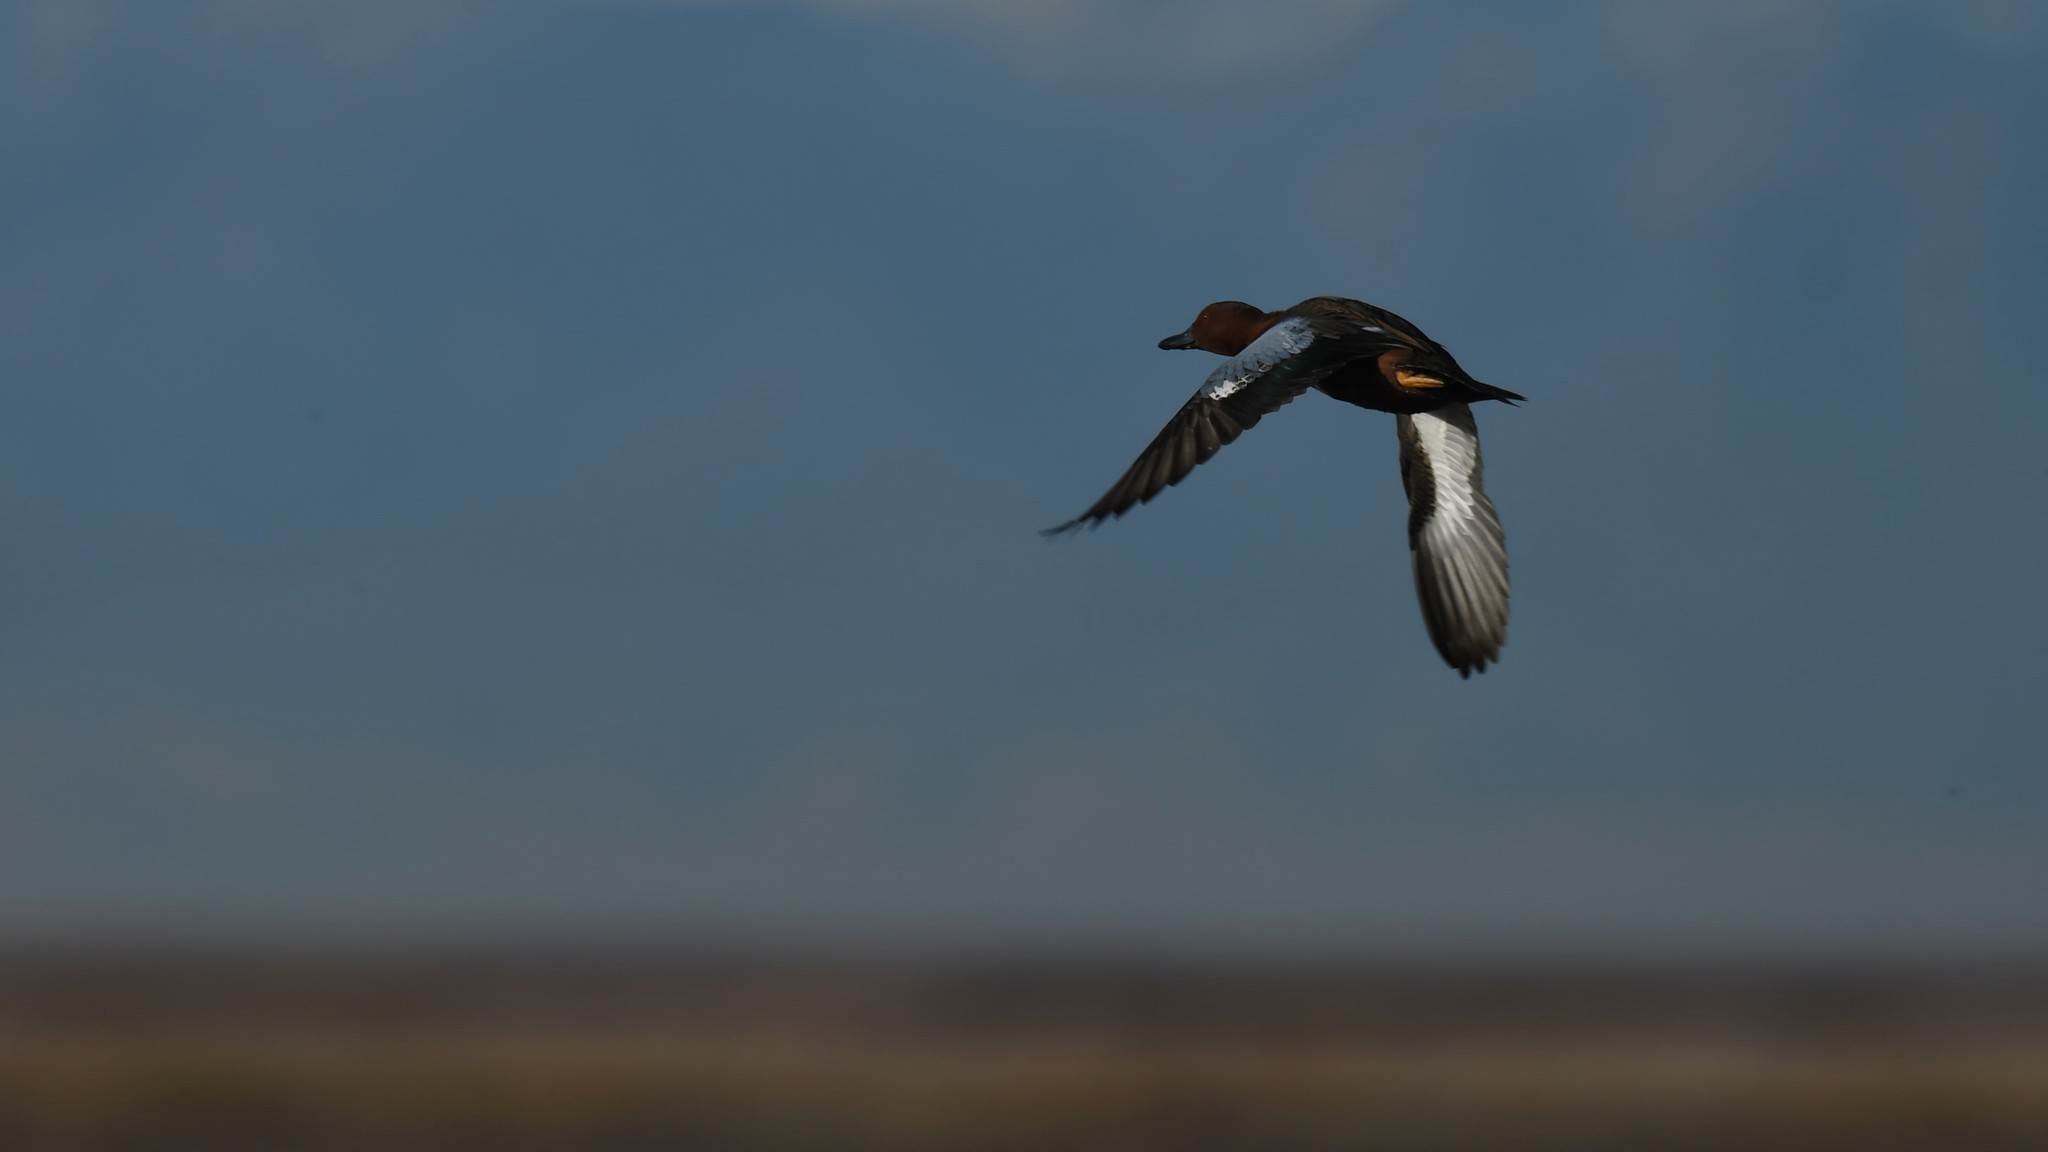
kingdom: Animalia
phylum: Chordata
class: Aves
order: Anseriformes
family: Anatidae
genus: Spatula
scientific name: Spatula cyanoptera
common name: Cinnamon teal
